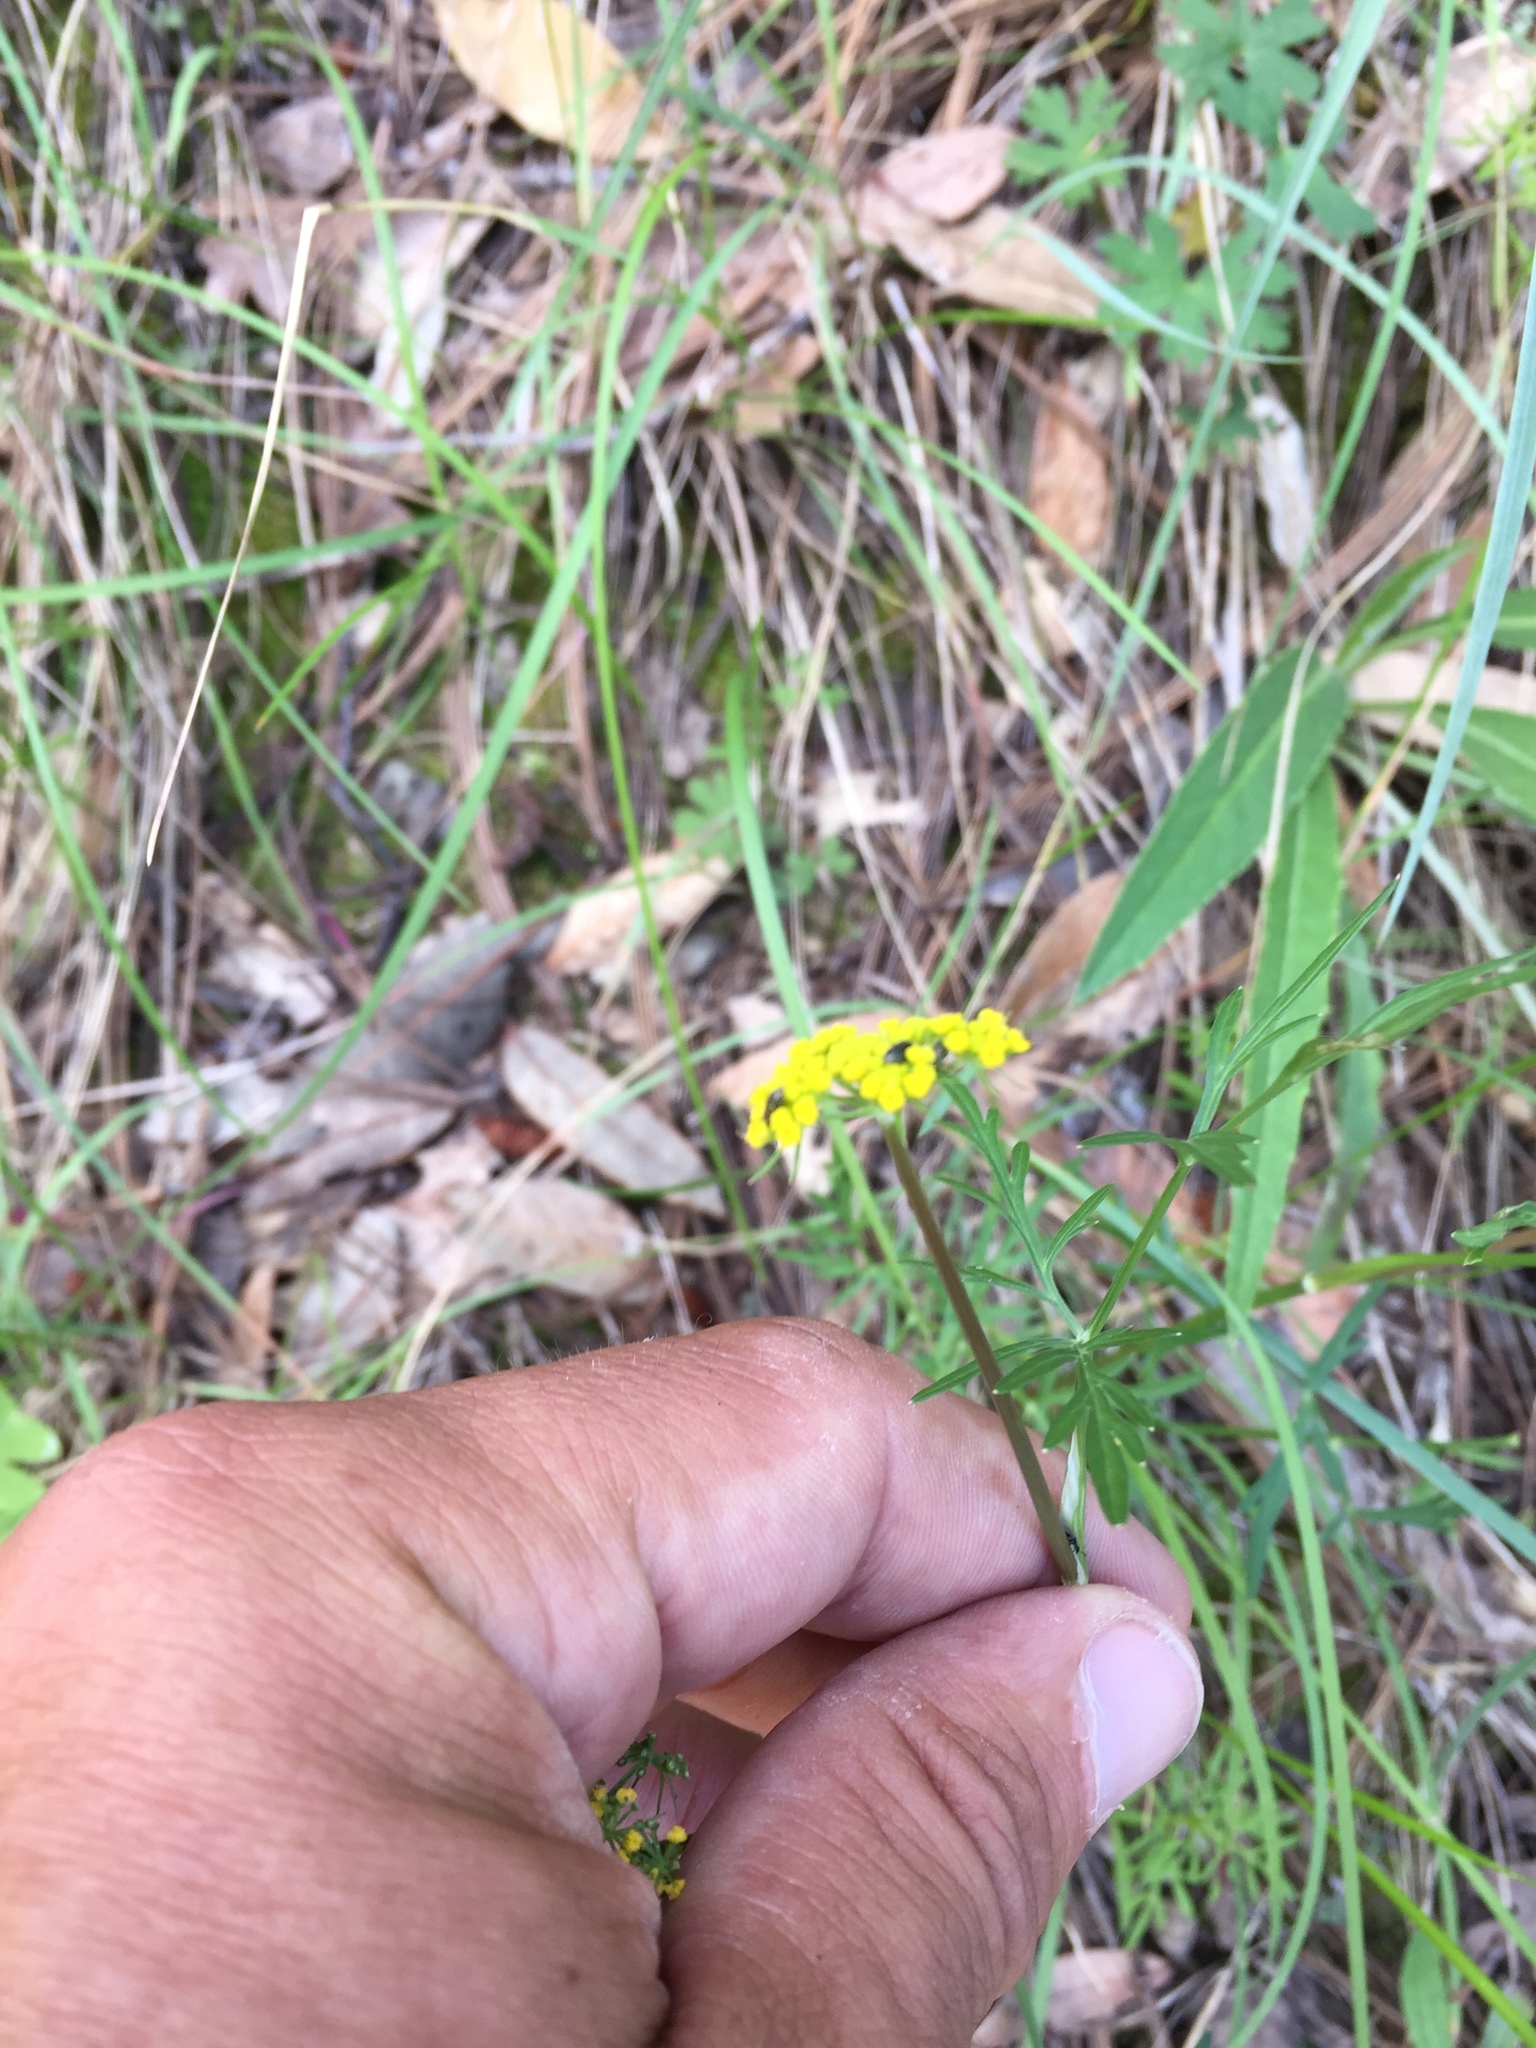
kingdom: Plantae
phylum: Tracheophyta
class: Magnoliopsida
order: Apiales
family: Apiaceae
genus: Cymopterus
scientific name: Cymopterus lemmonii
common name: Lemmon's spring-parsley
